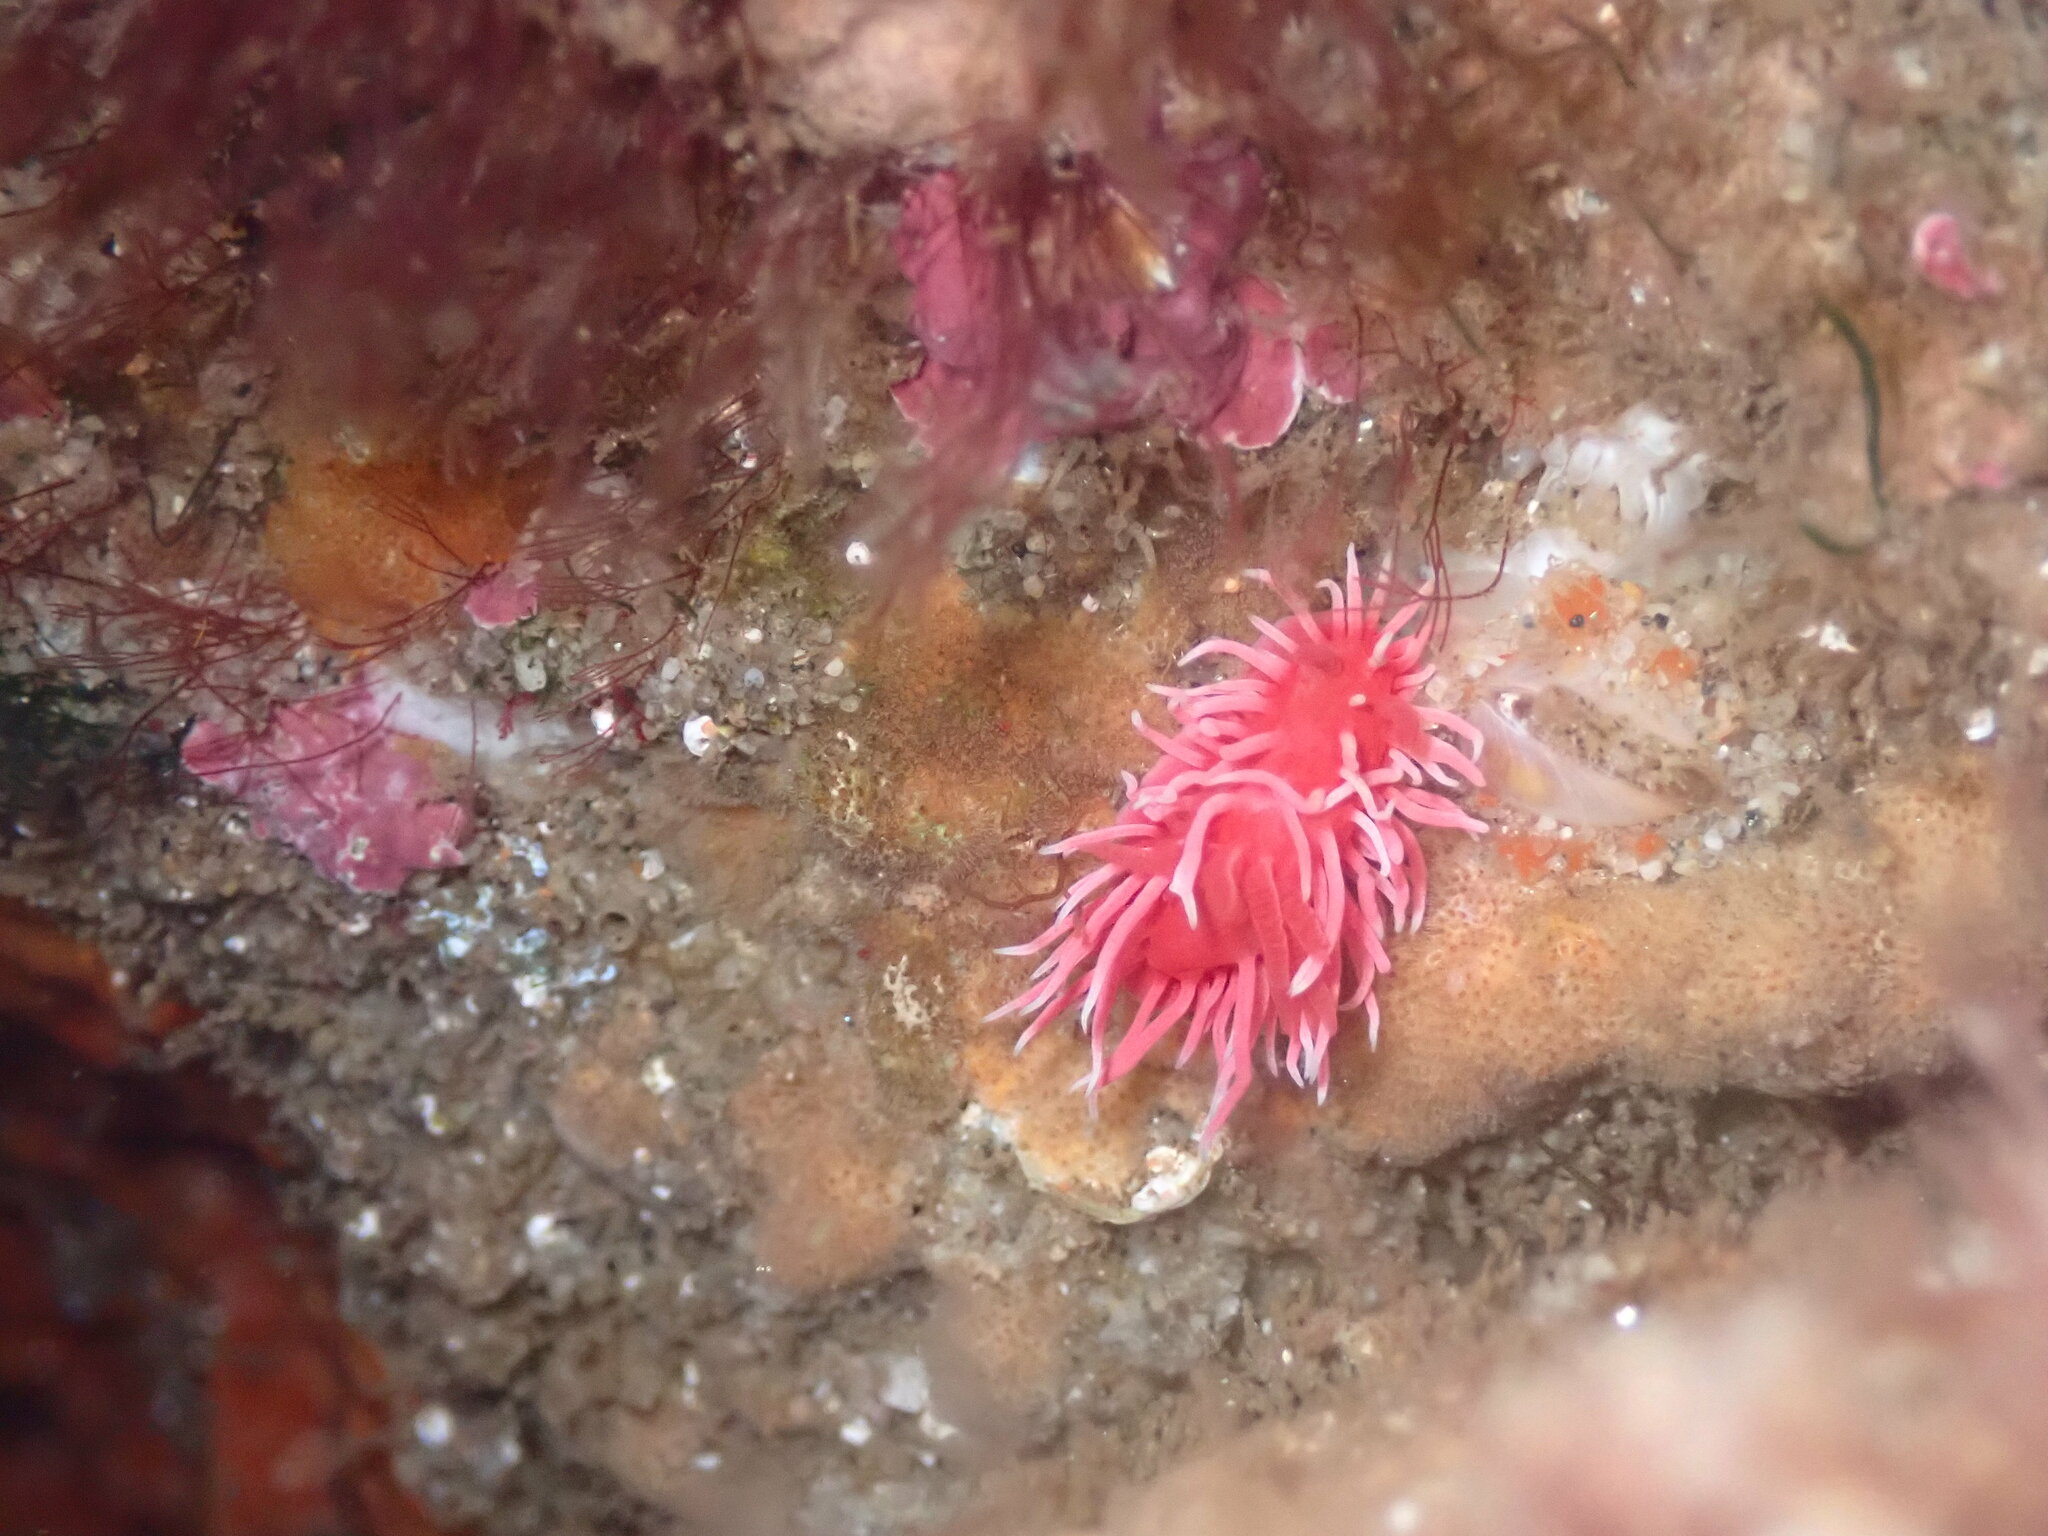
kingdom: Animalia
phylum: Mollusca
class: Gastropoda
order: Nudibranchia
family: Goniodorididae
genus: Okenia
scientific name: Okenia
